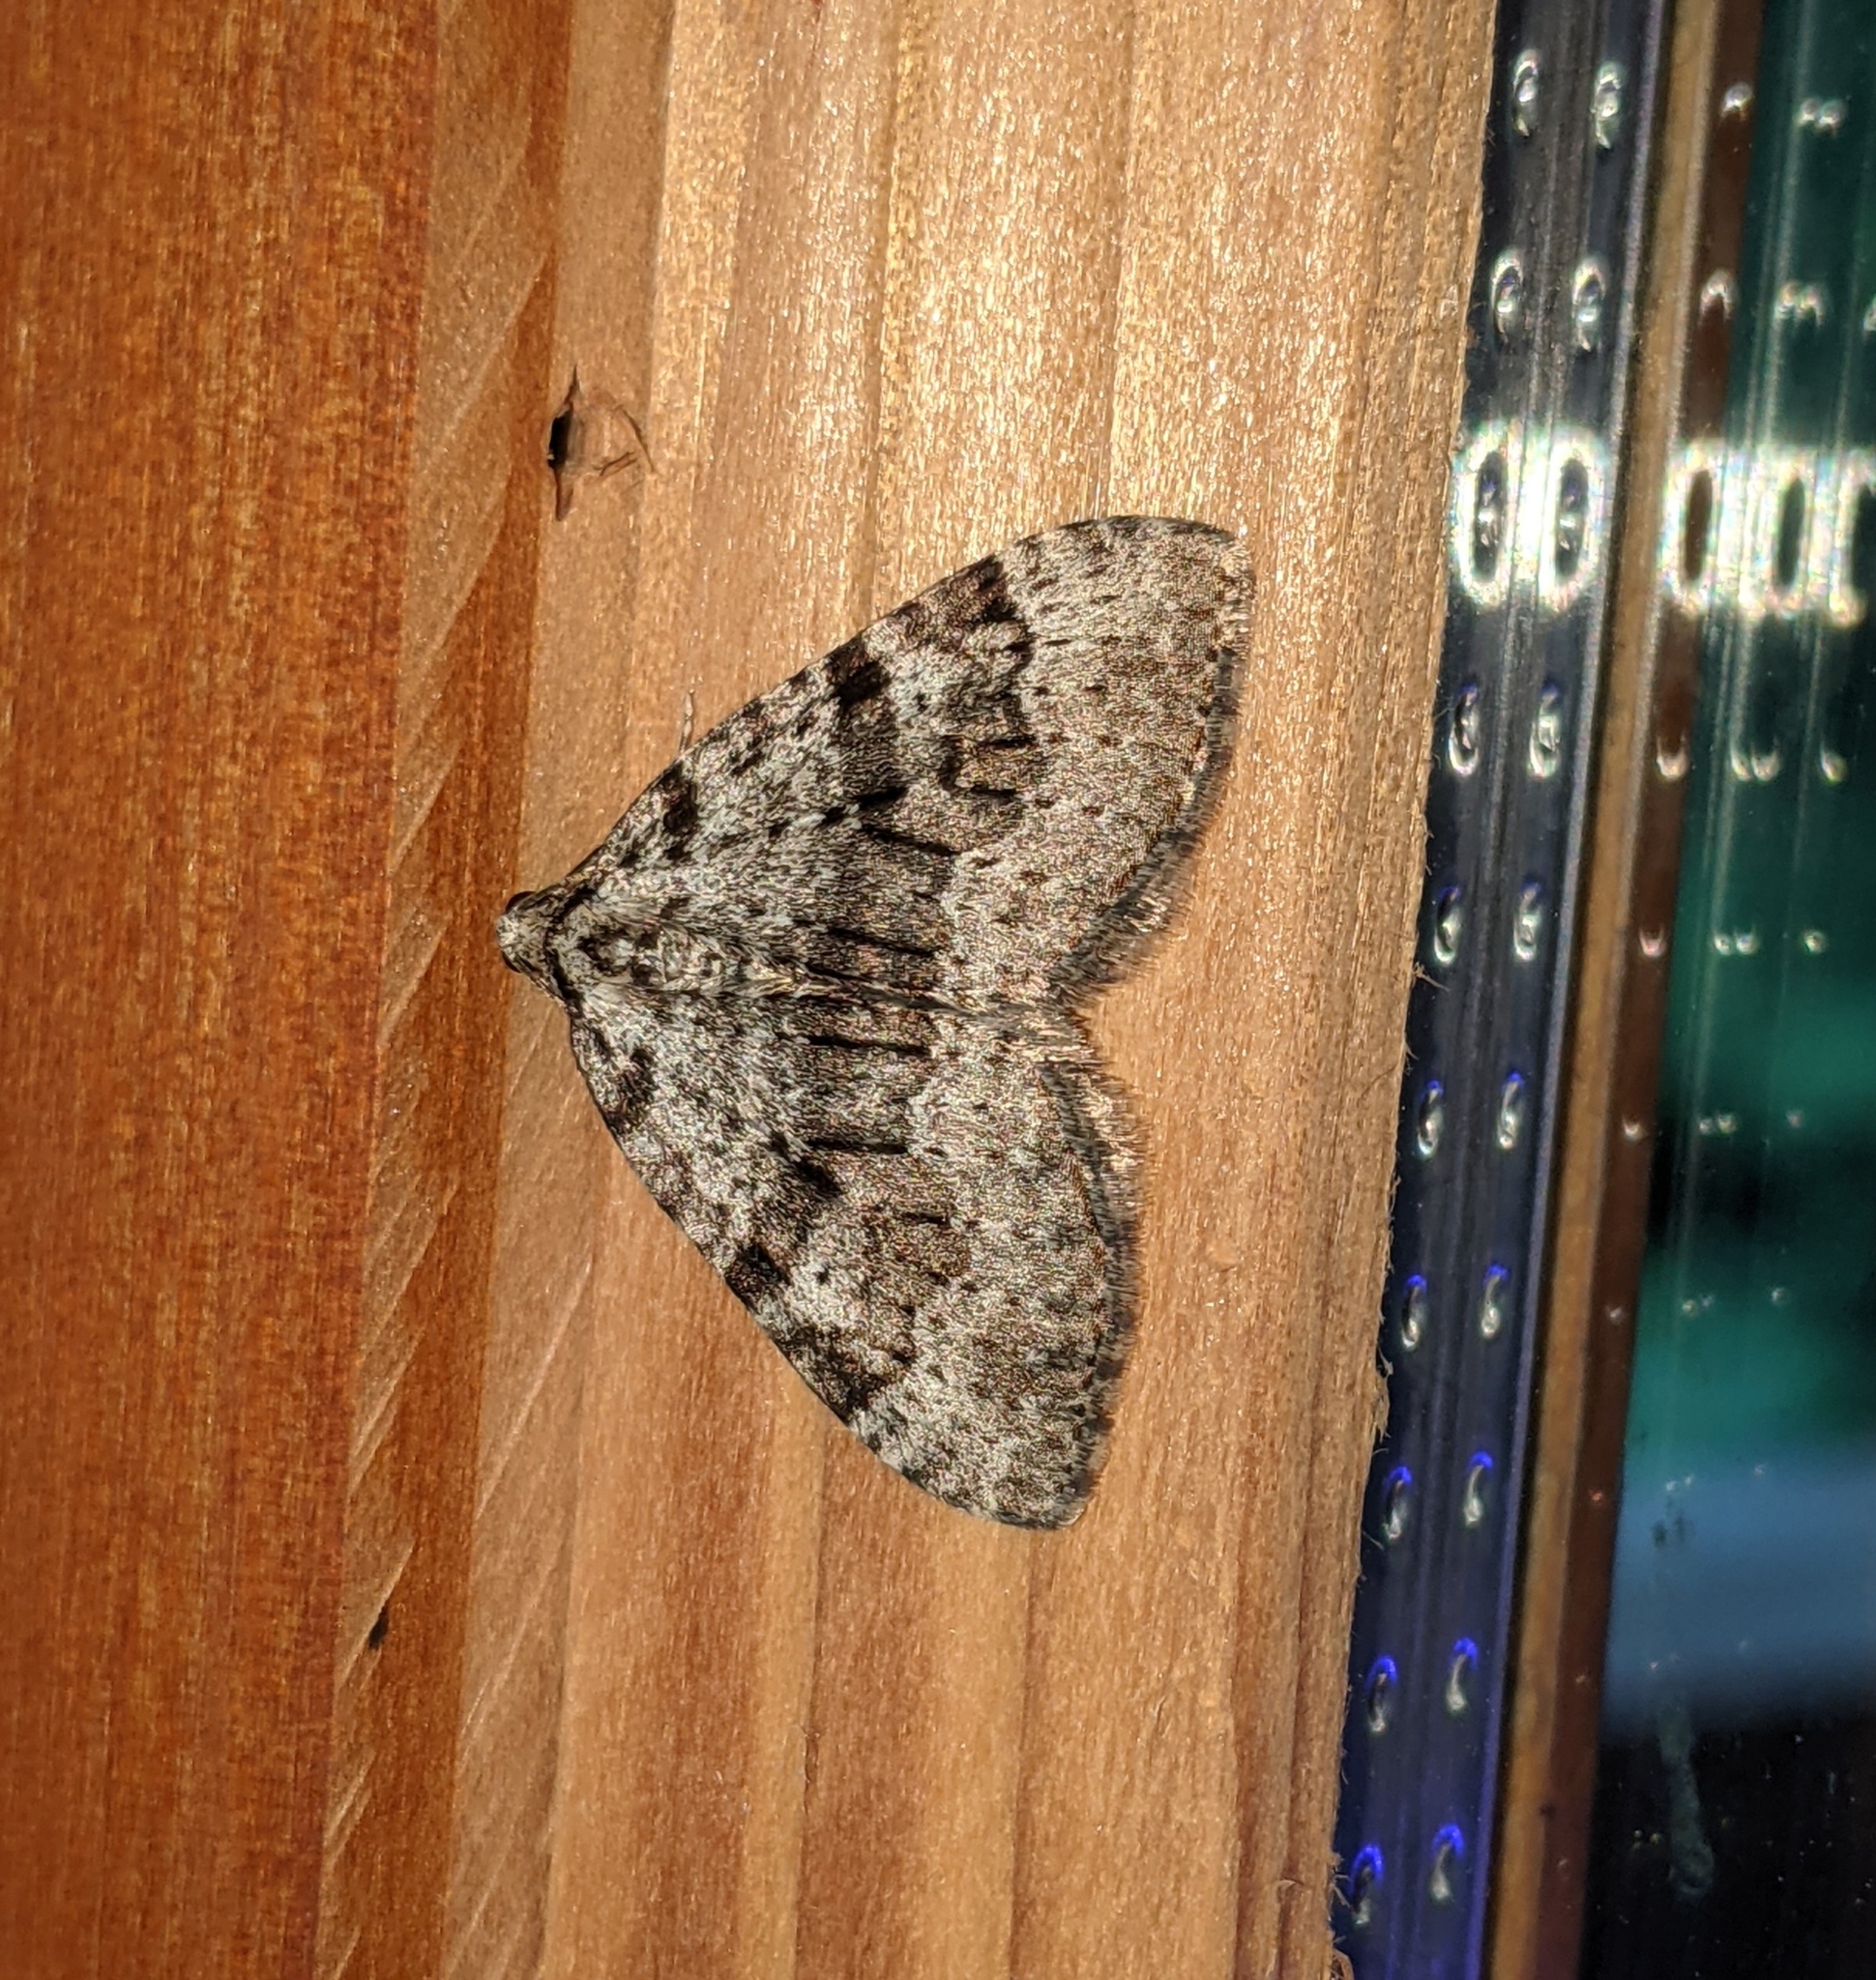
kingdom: Animalia
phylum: Arthropoda
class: Insecta
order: Lepidoptera
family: Geometridae
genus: Perizoma
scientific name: Perizoma curvilinea
